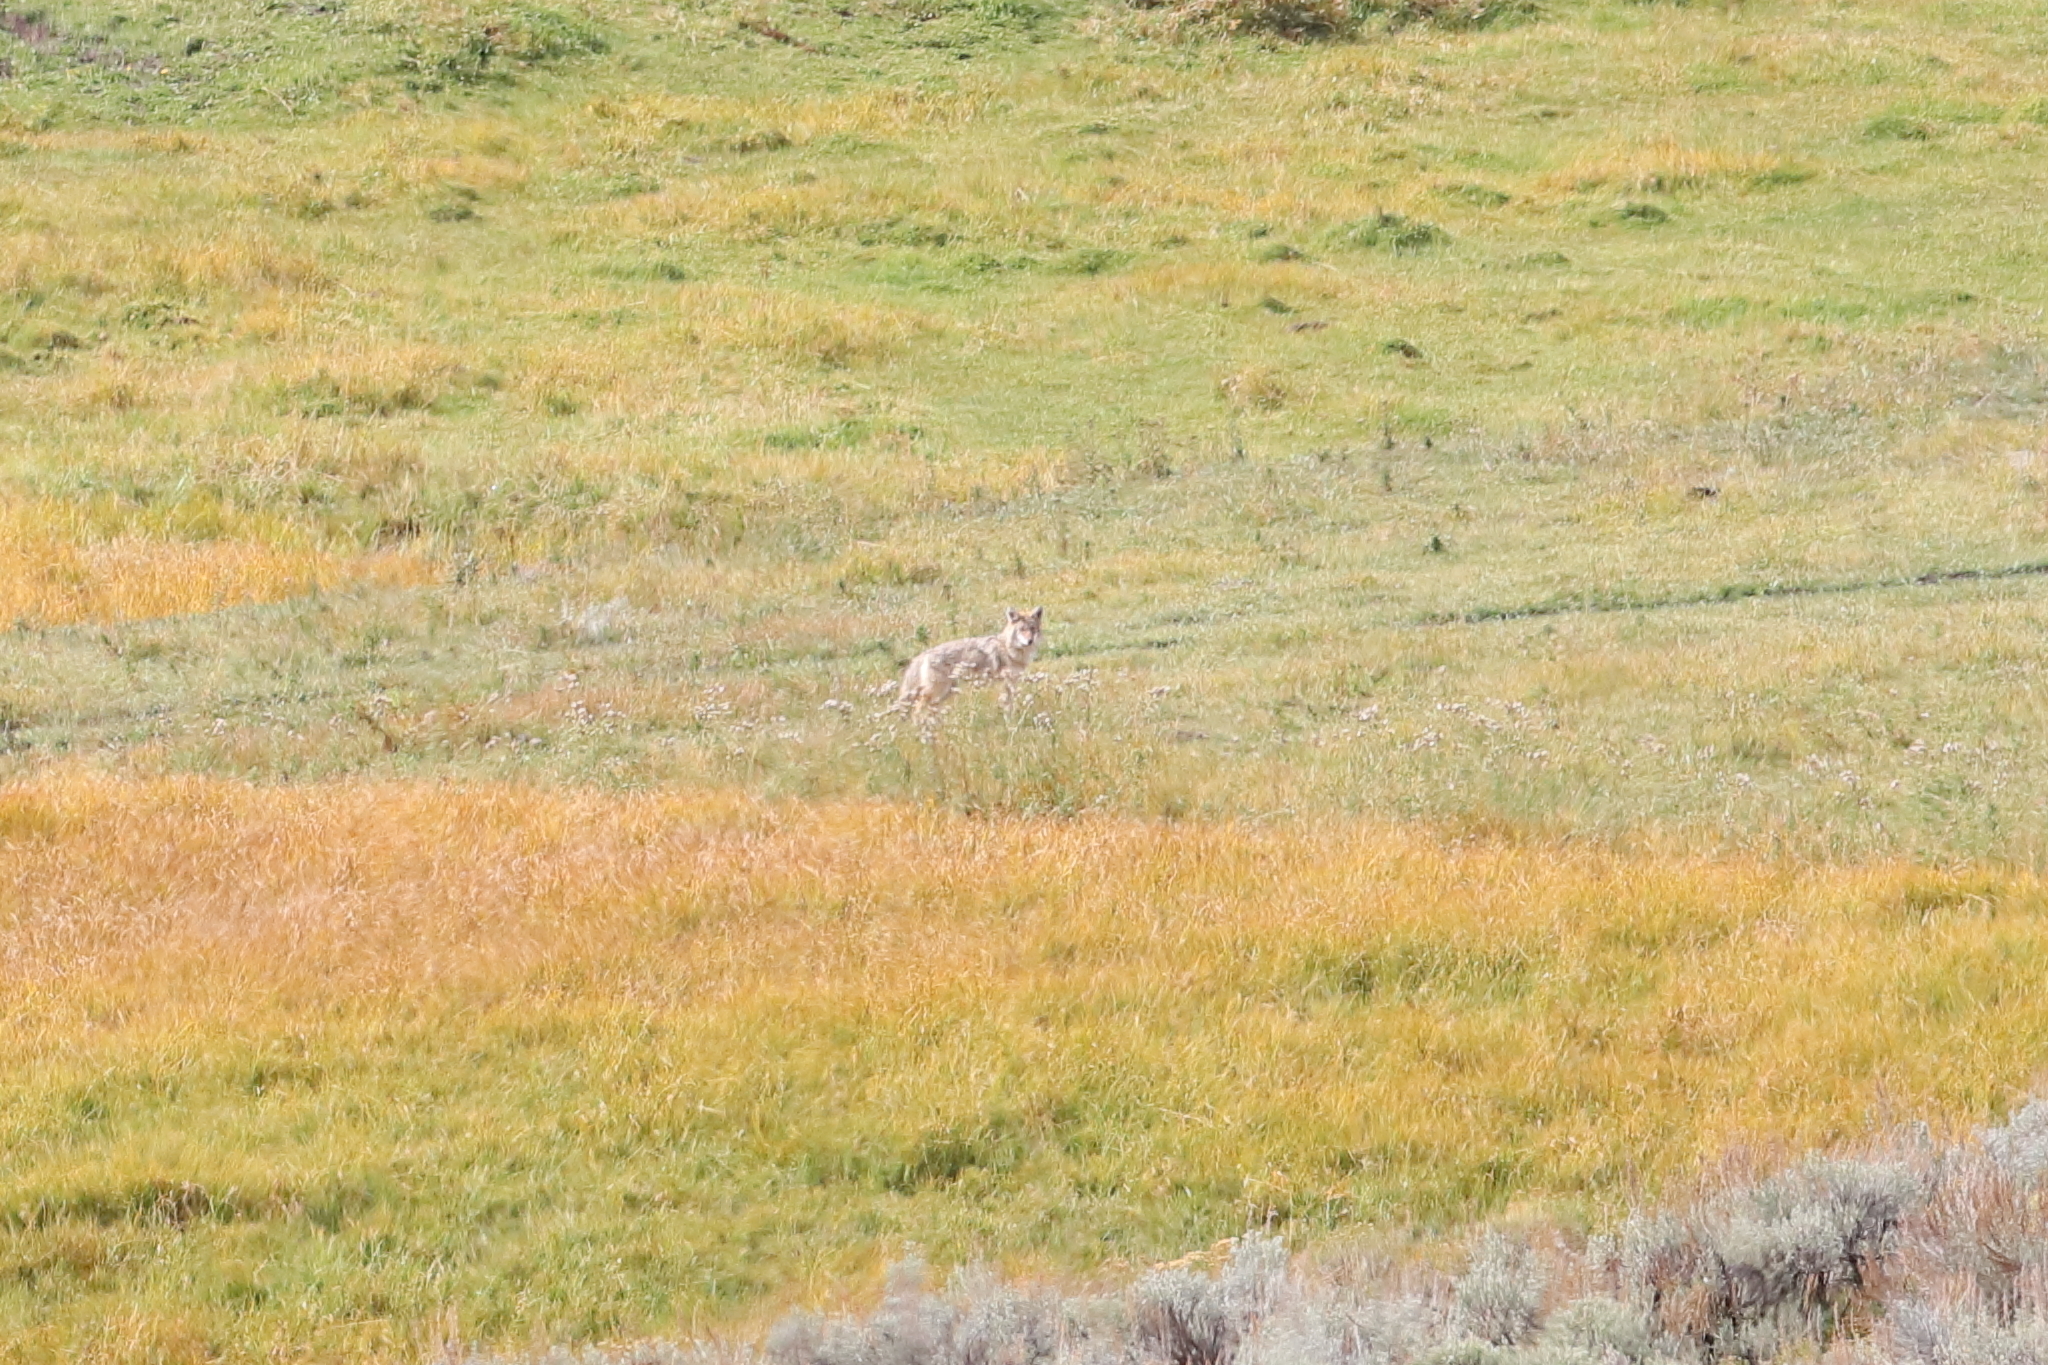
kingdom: Animalia
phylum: Chordata
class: Mammalia
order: Carnivora
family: Canidae
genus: Canis
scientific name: Canis latrans
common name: Coyote
